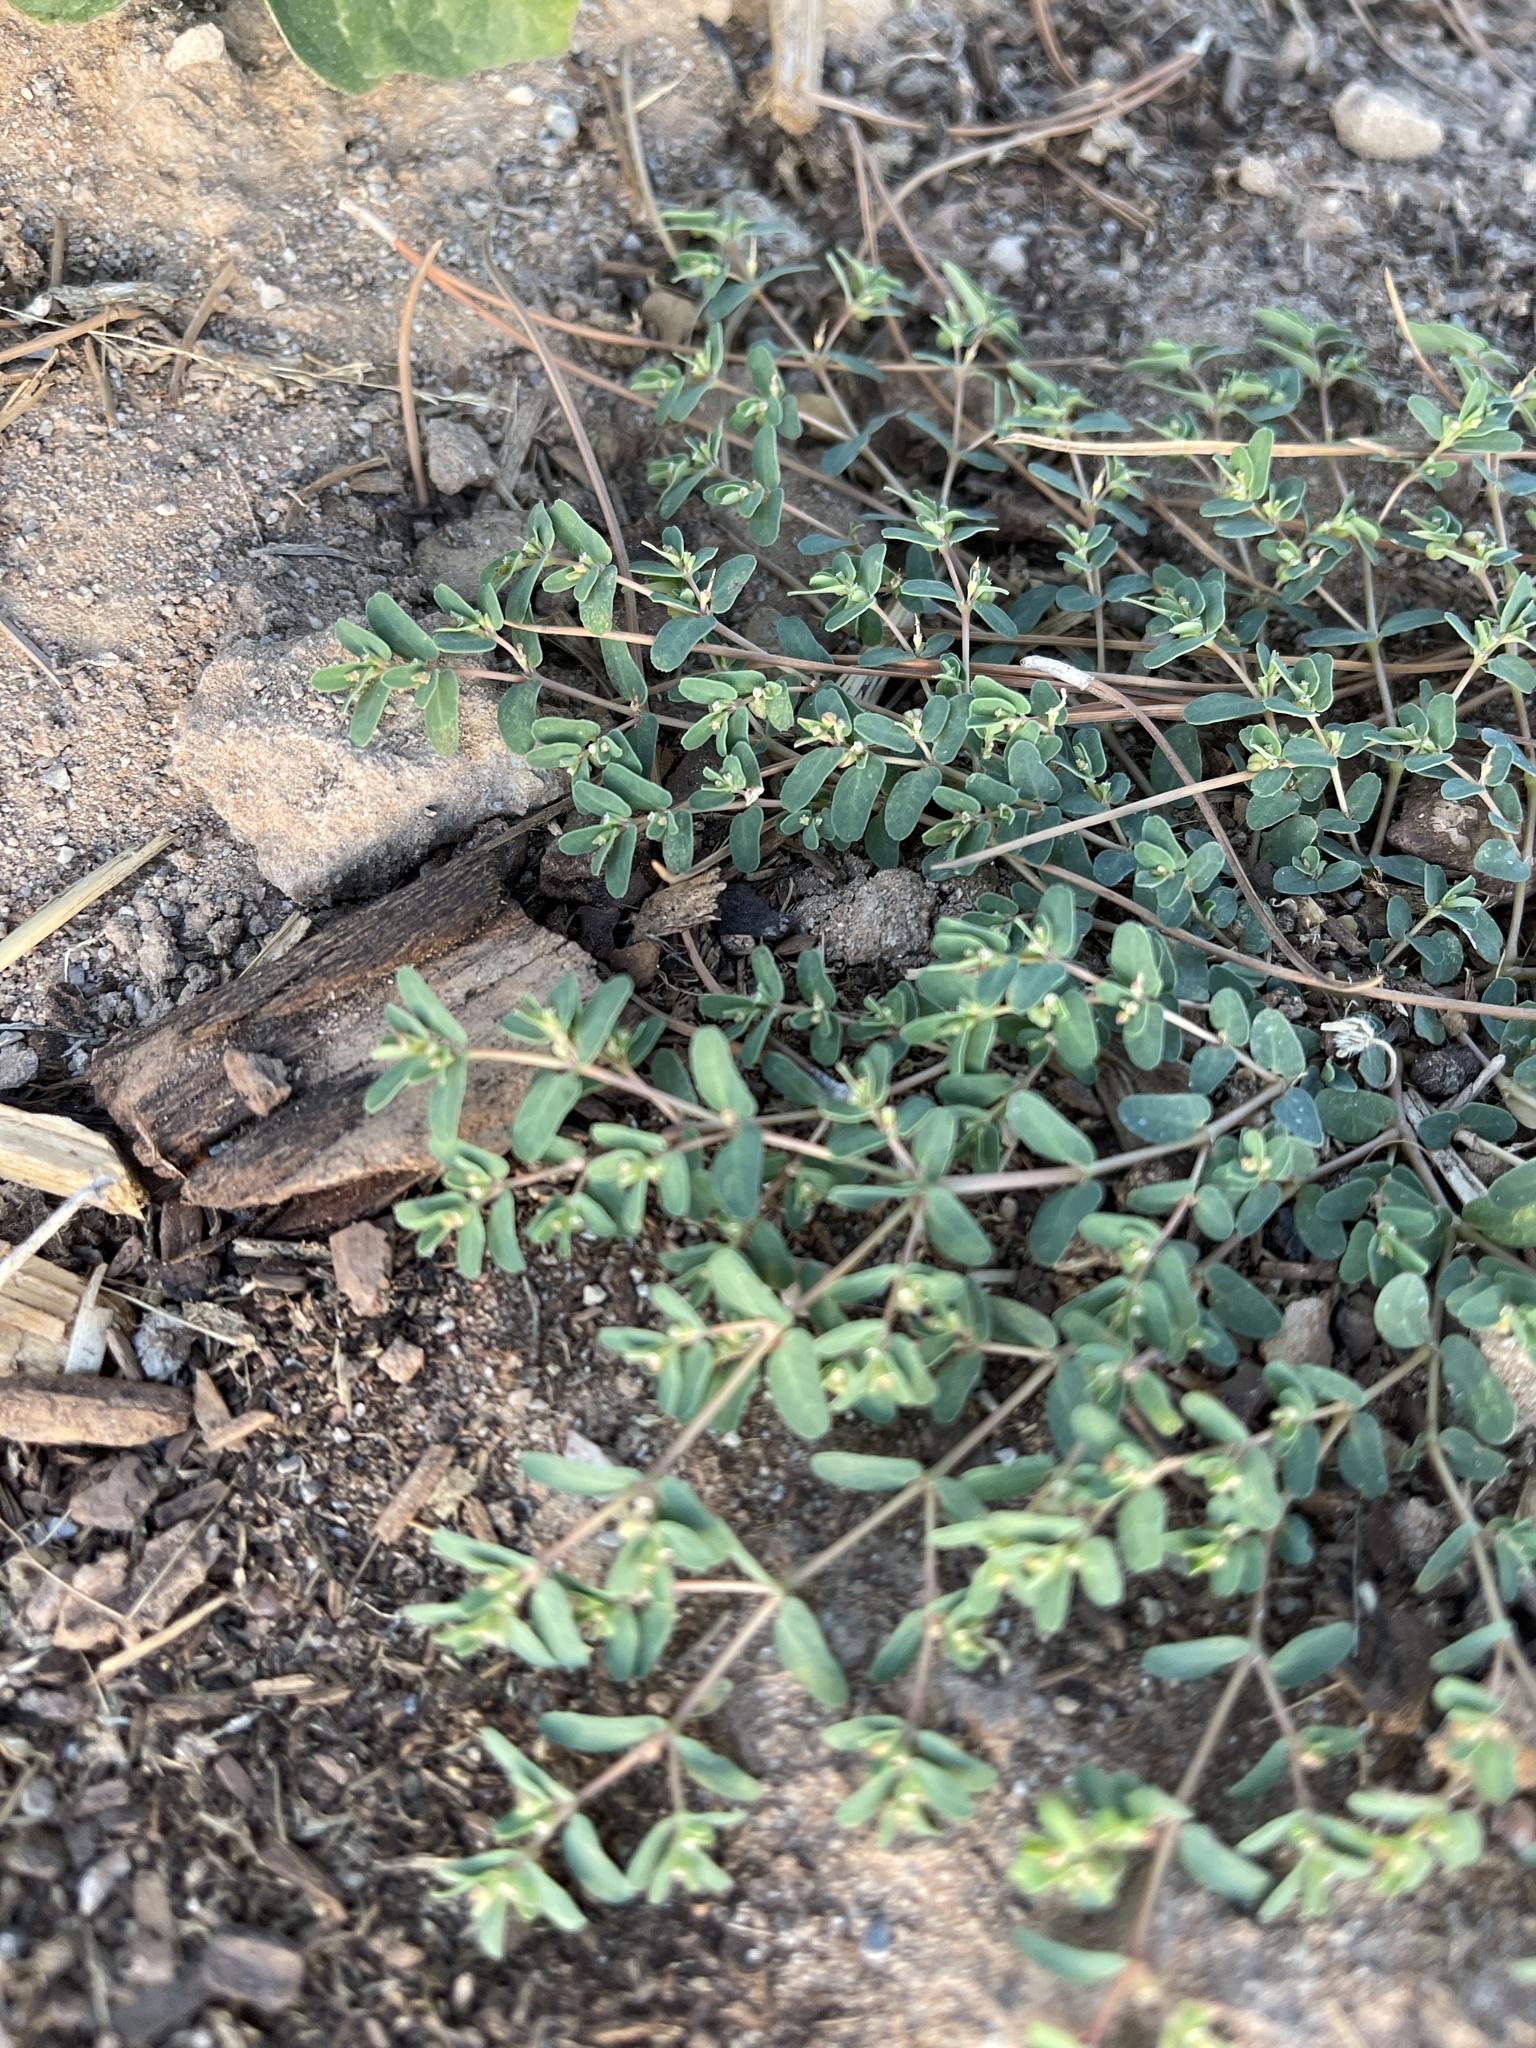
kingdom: Plantae
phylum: Tracheophyta
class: Magnoliopsida
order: Malpighiales
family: Euphorbiaceae
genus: Euphorbia
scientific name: Euphorbia glyptosperma
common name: Corrugate-seeded spurge
